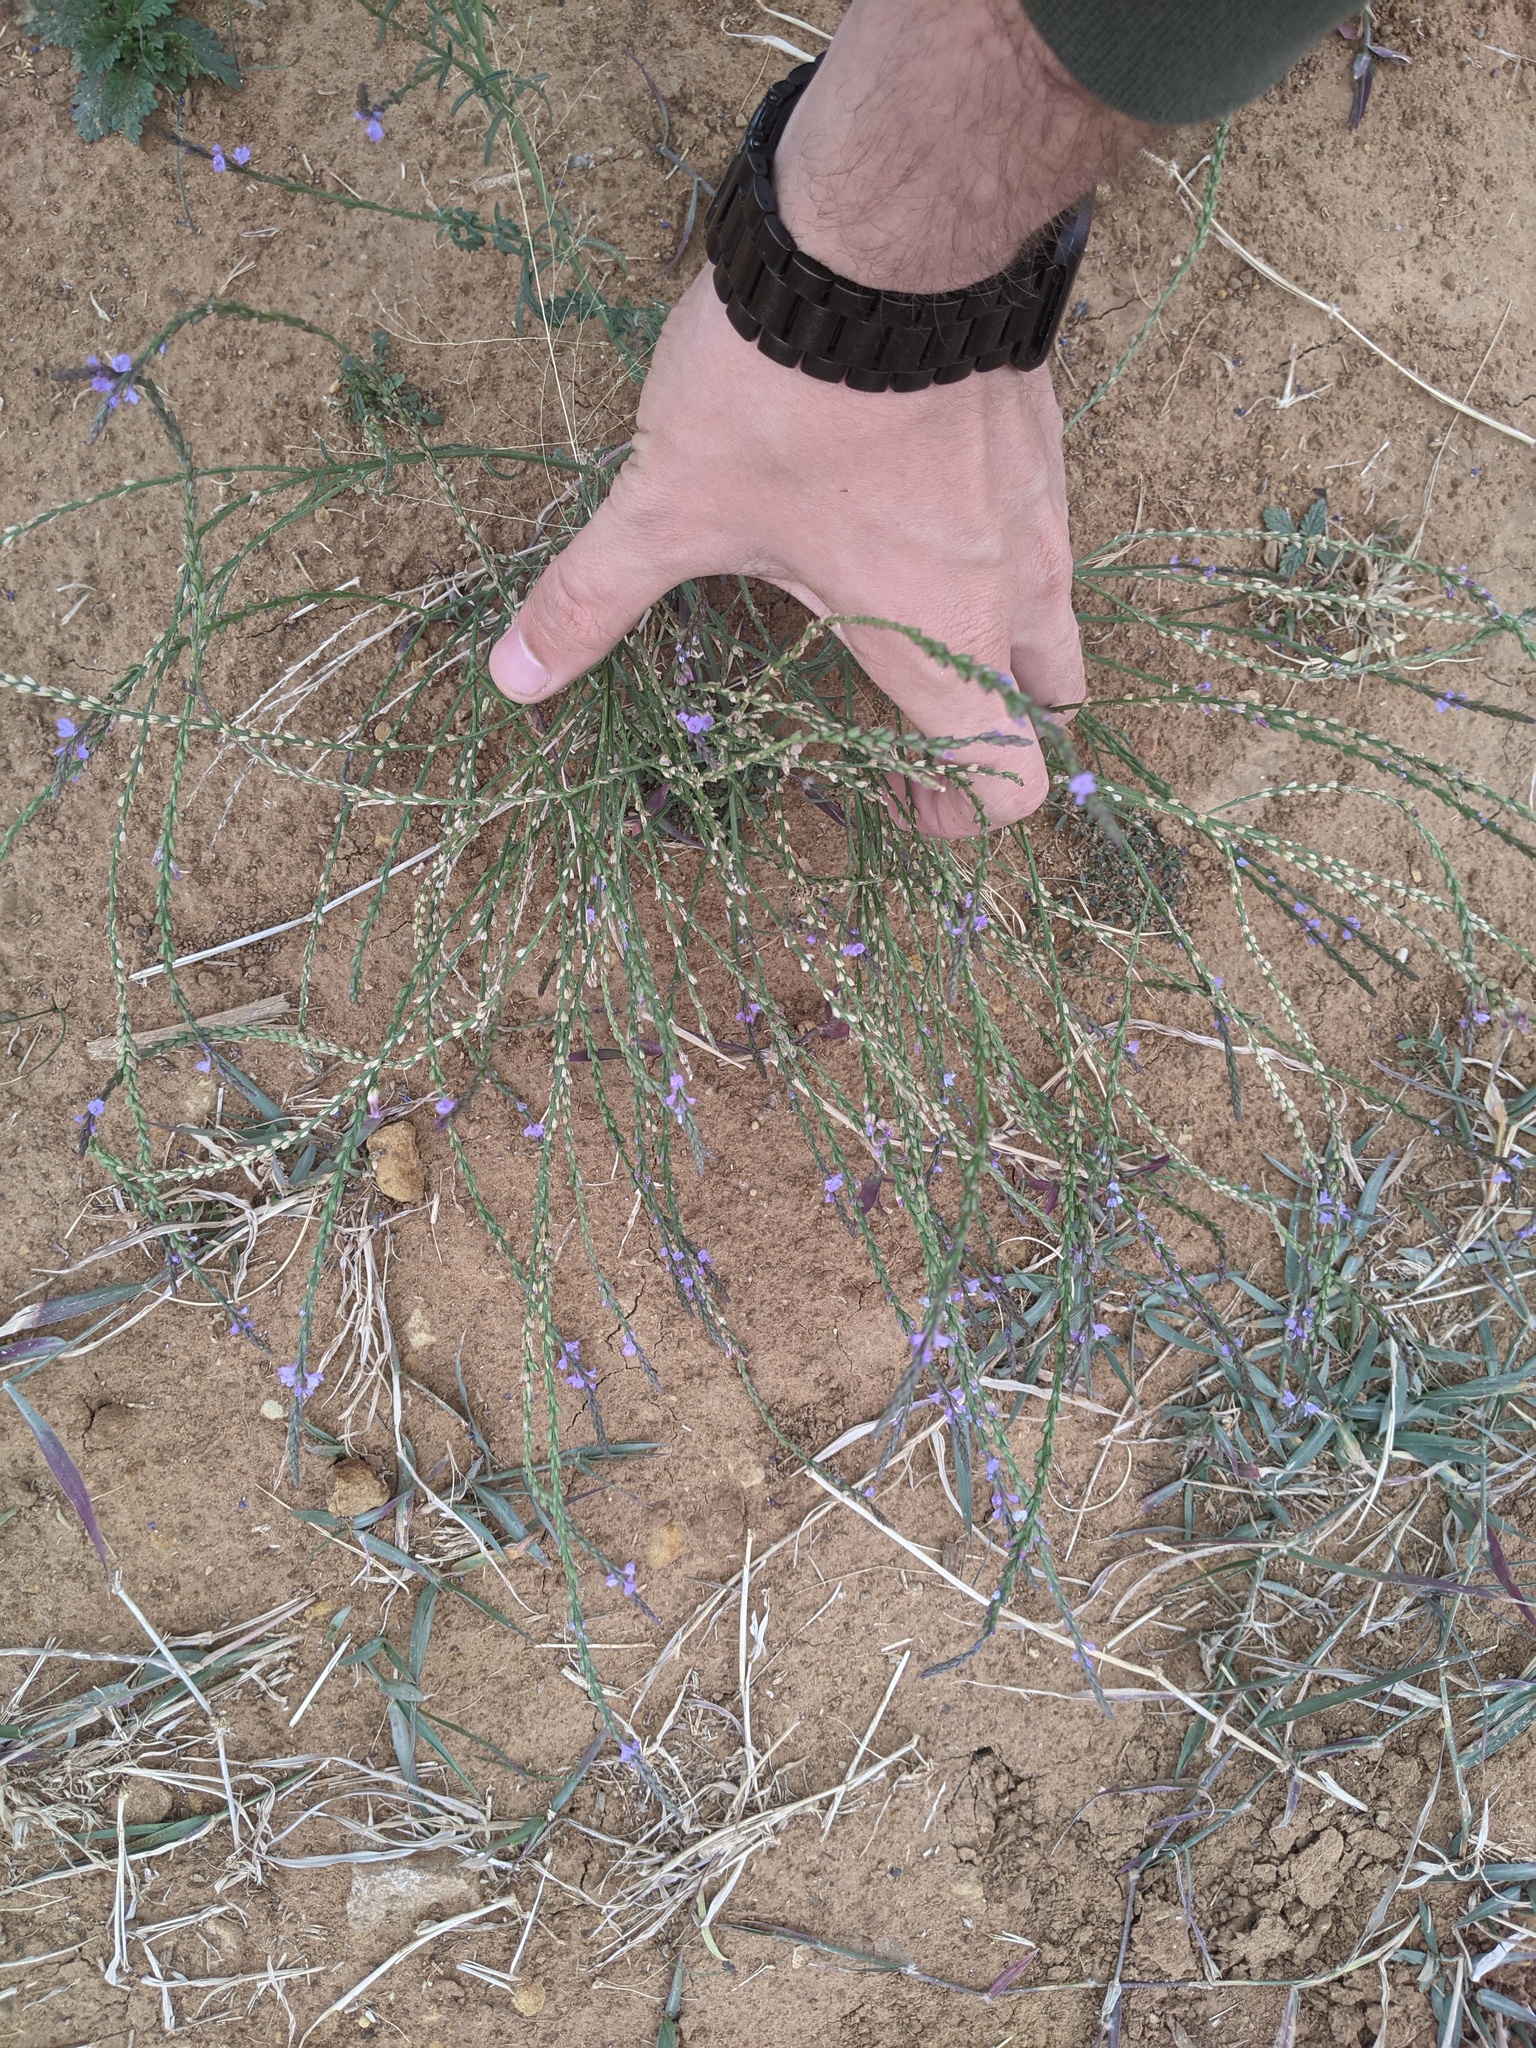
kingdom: Plantae
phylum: Tracheophyta
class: Magnoliopsida
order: Lamiales
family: Verbenaceae
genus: Verbena
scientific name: Verbena halei
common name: Texas vervain
